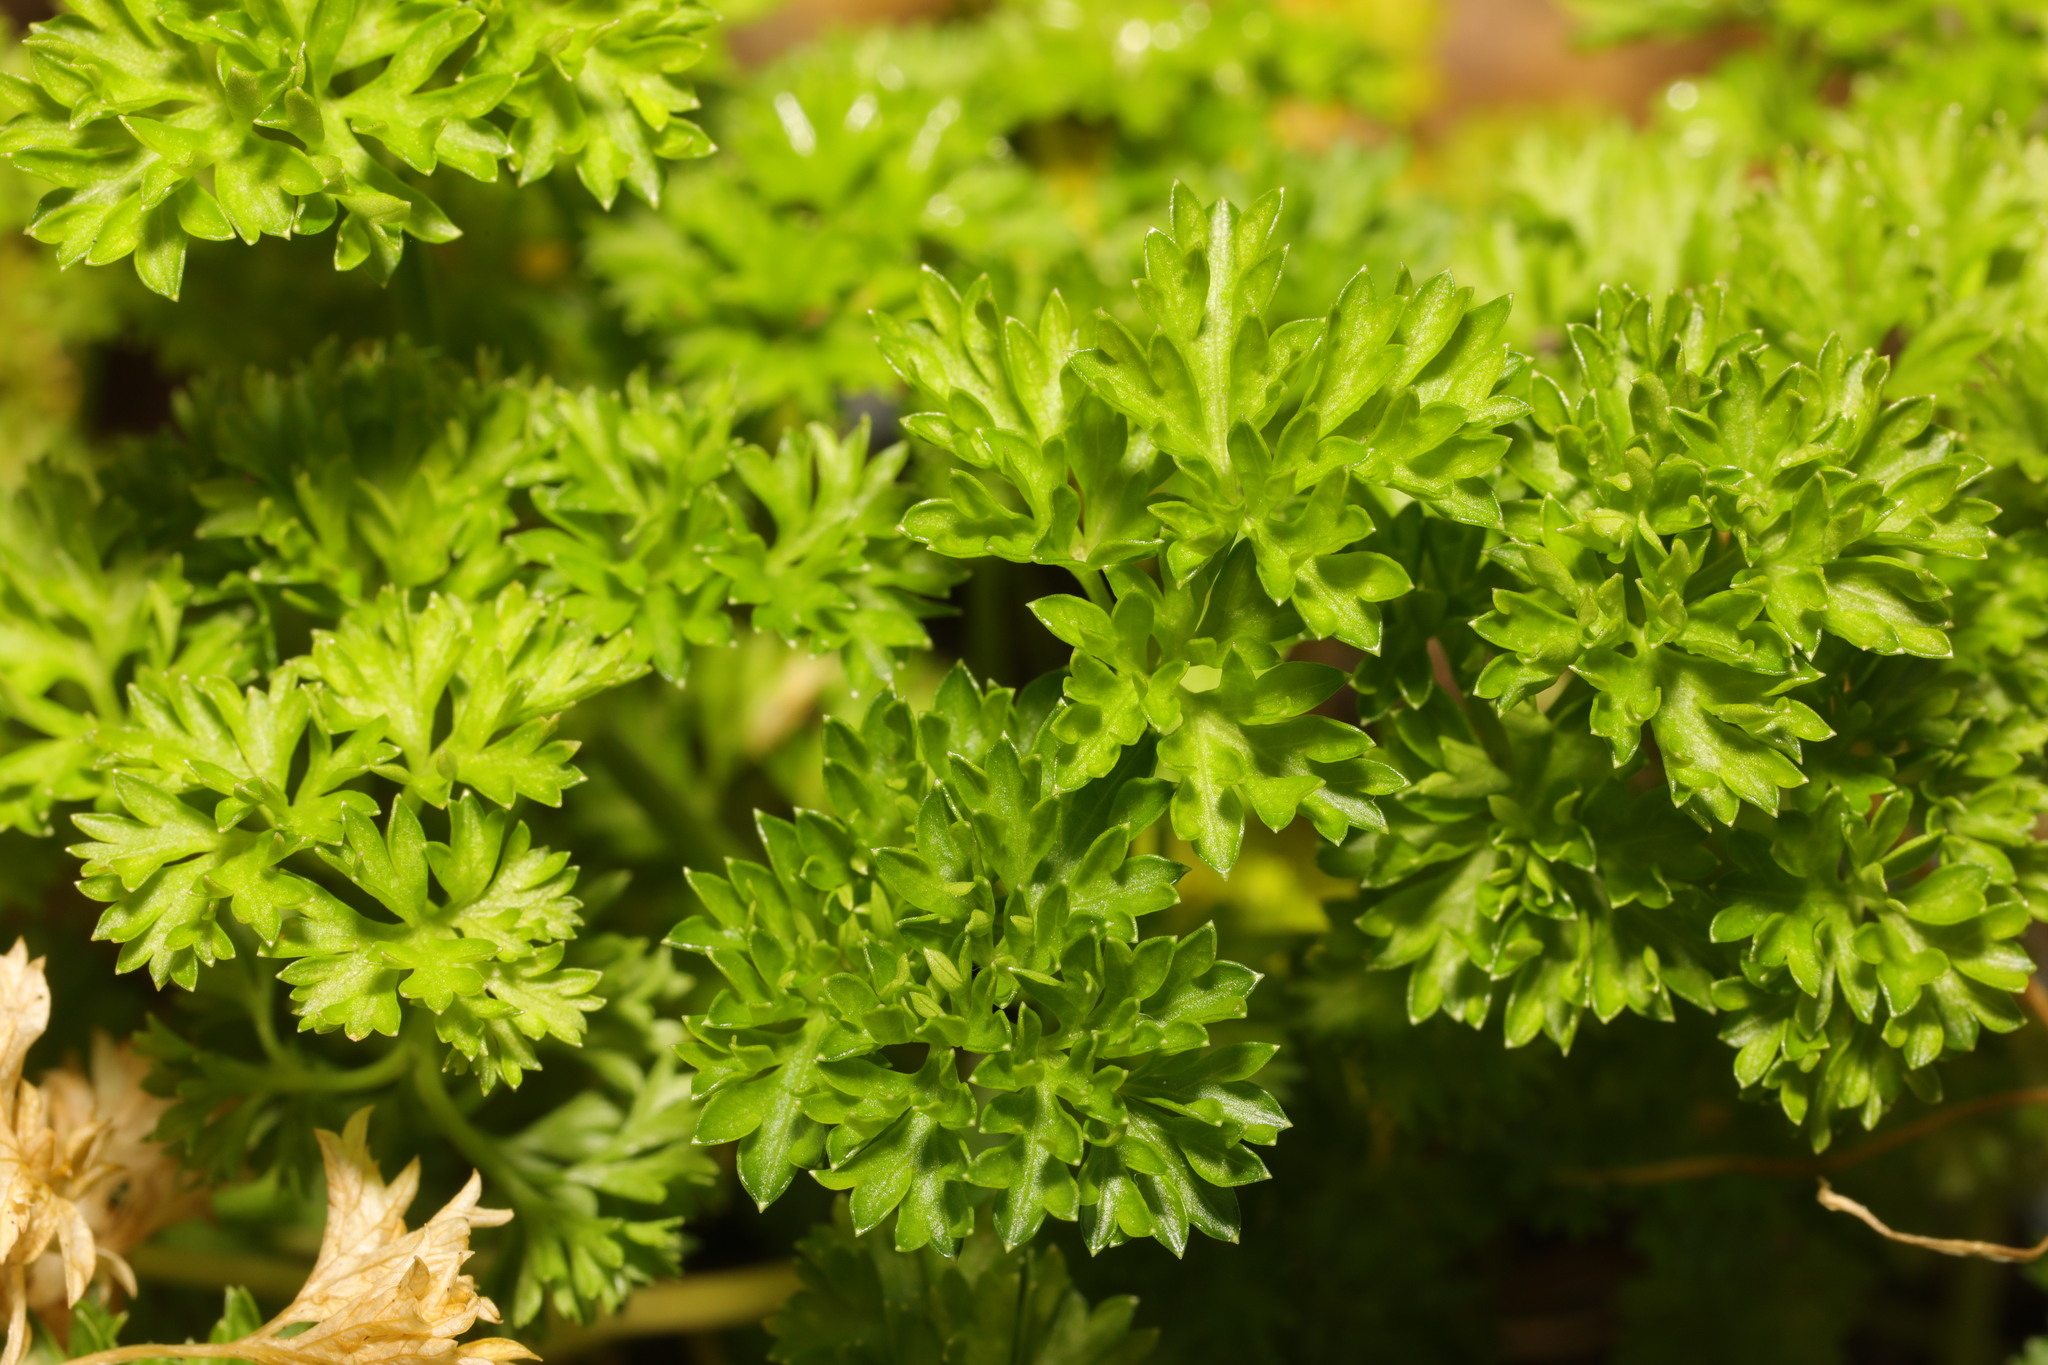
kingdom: Plantae
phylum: Tracheophyta
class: Magnoliopsida
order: Apiales
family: Apiaceae
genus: Petroselinum
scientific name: Petroselinum crispum
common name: Parsley
